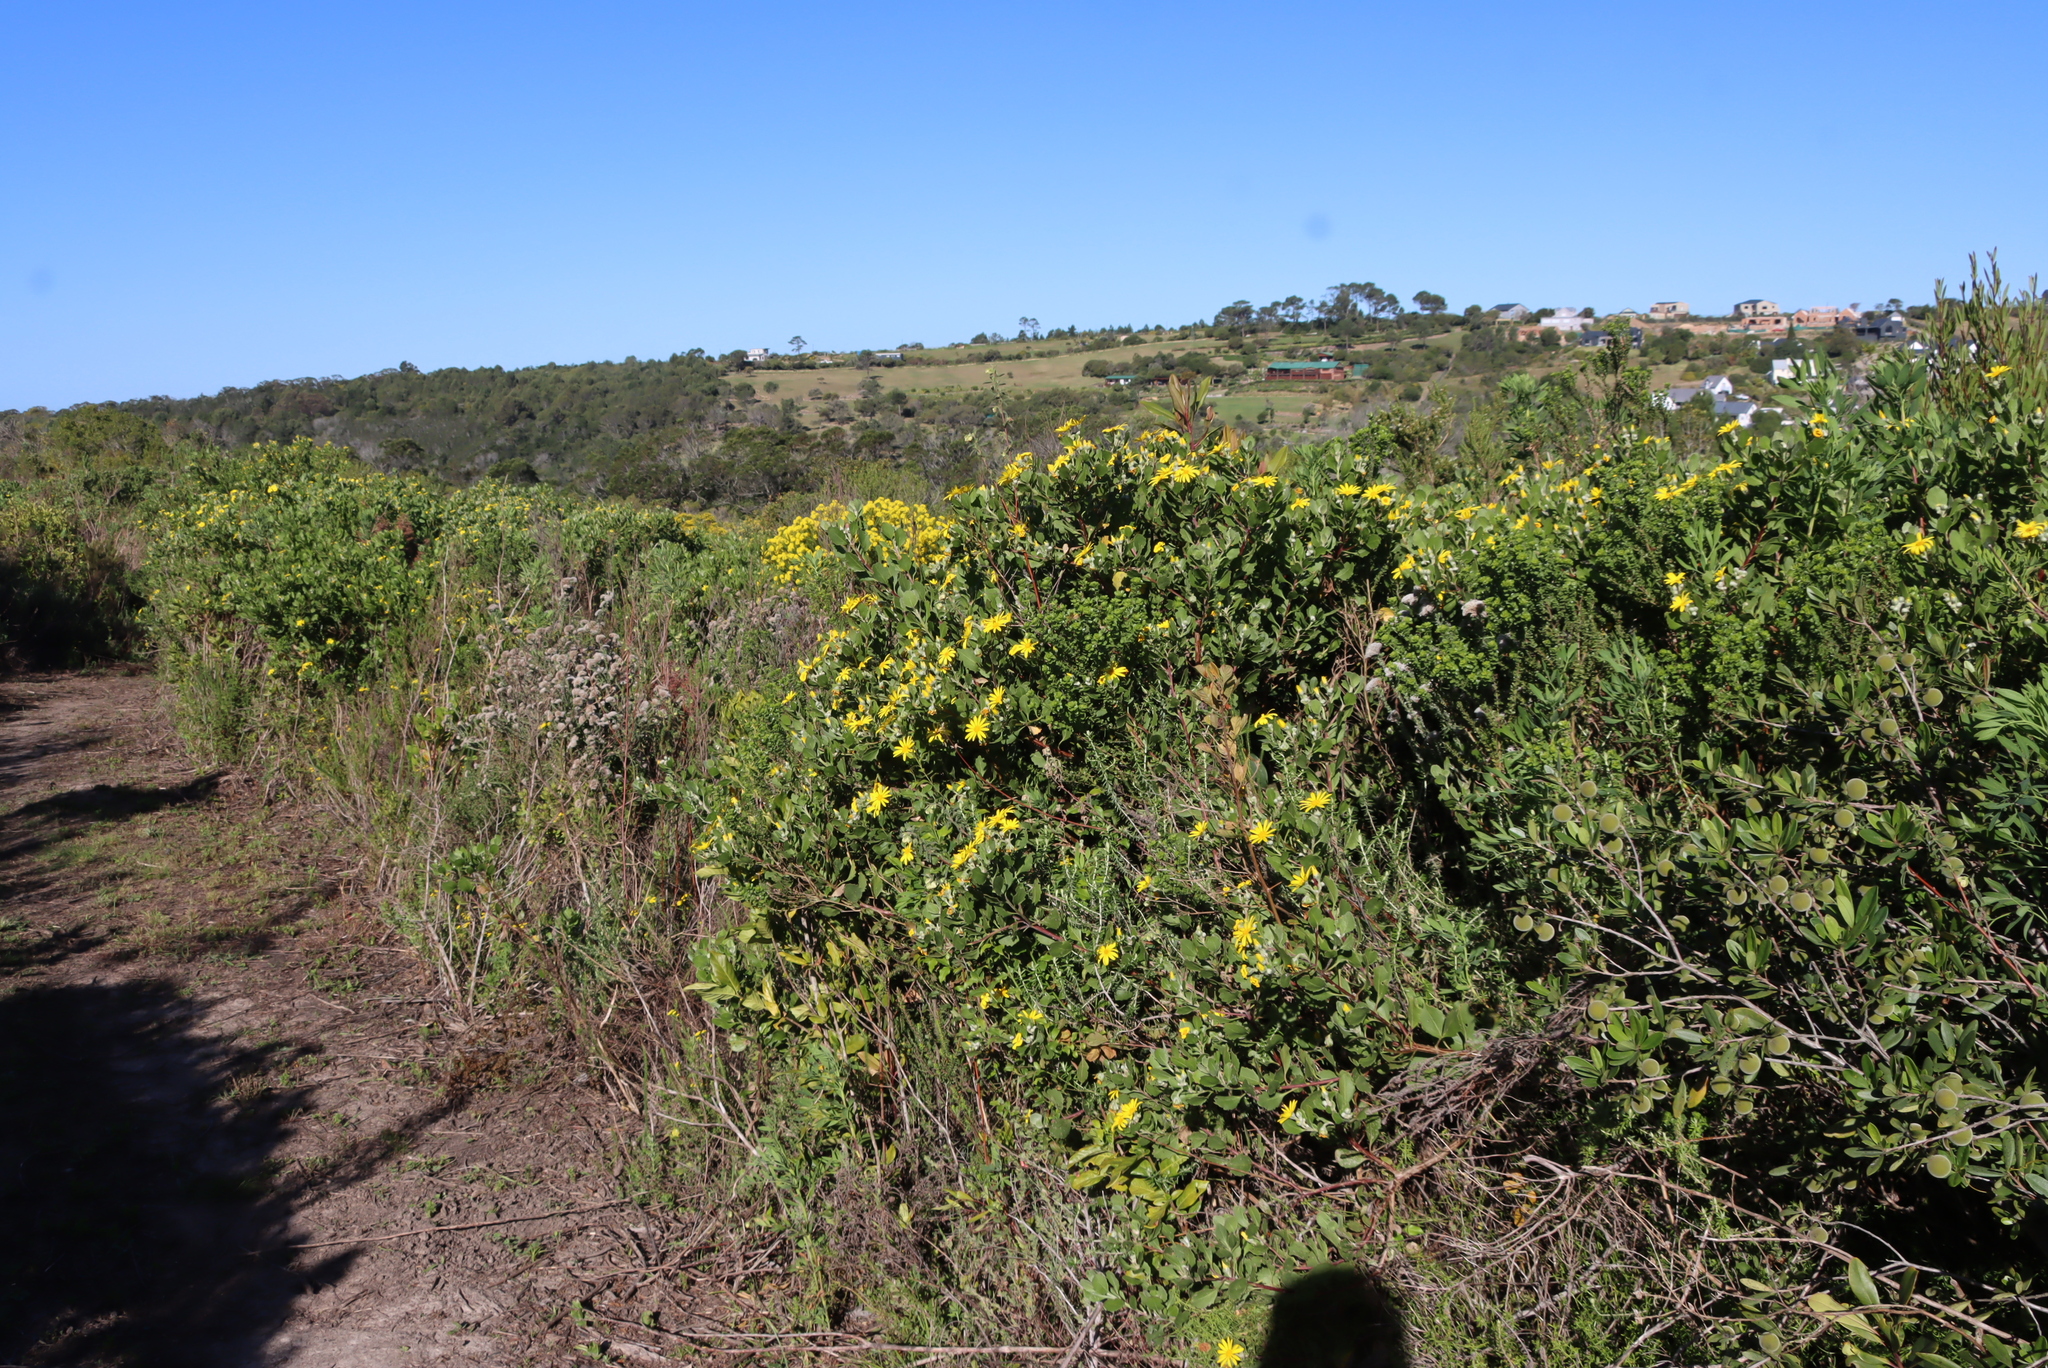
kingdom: Plantae
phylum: Tracheophyta
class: Magnoliopsida
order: Asterales
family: Asteraceae
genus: Osteospermum
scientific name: Osteospermum moniliferum
